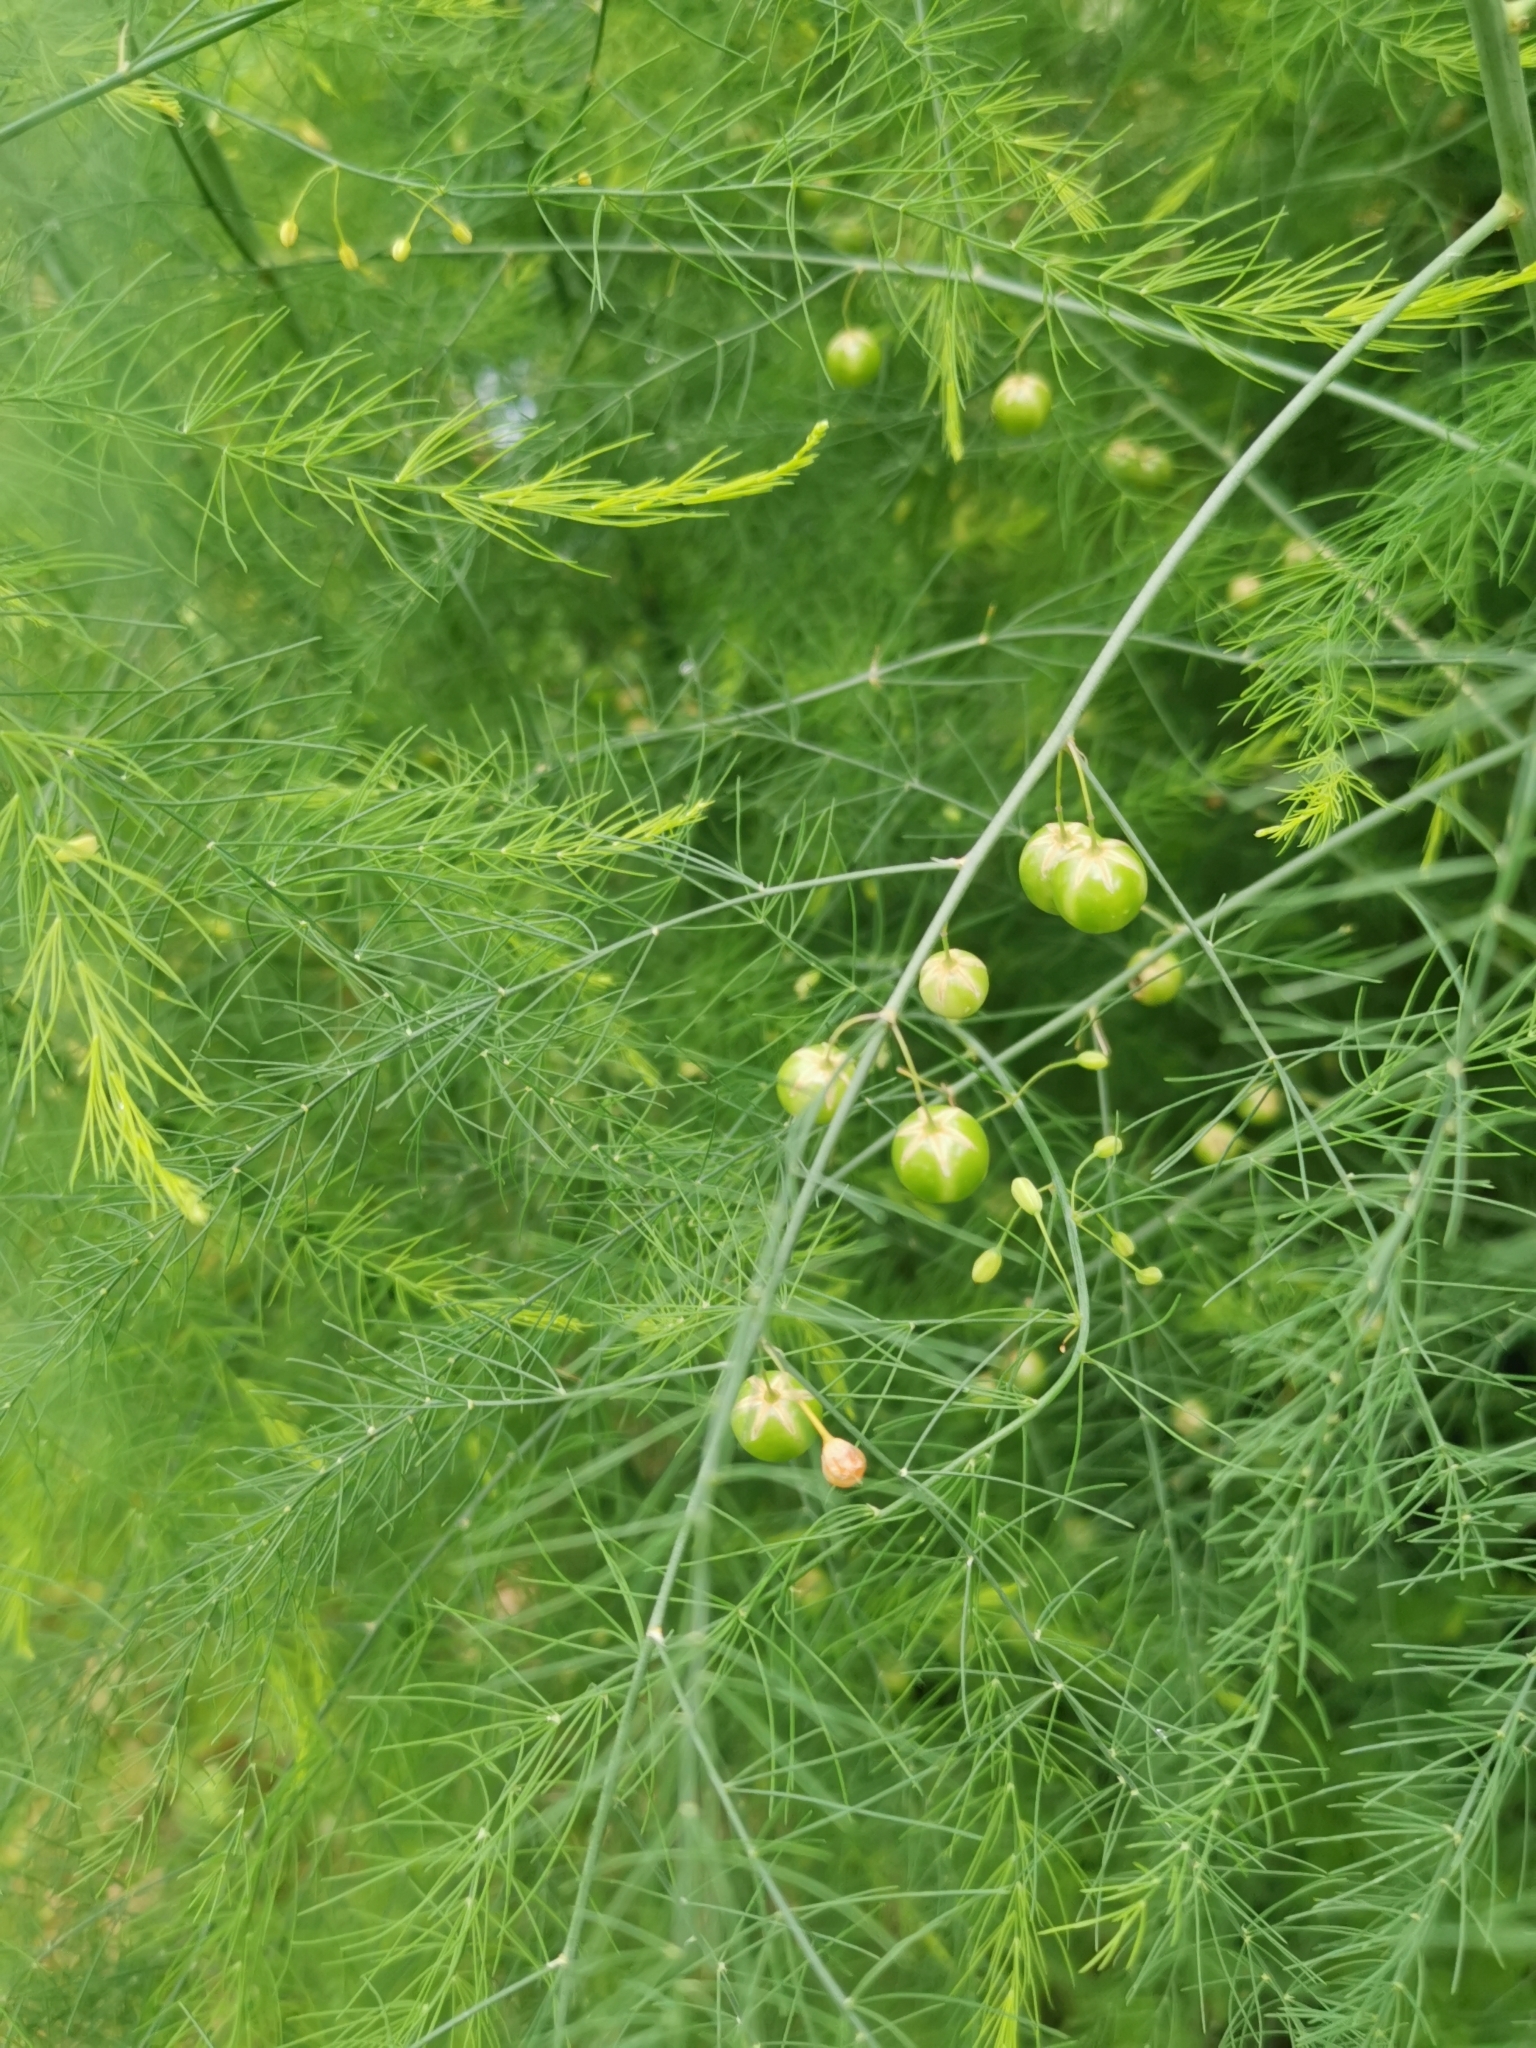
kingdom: Plantae
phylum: Tracheophyta
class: Liliopsida
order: Asparagales
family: Asparagaceae
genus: Asparagus
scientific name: Asparagus officinalis
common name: Garden asparagus
